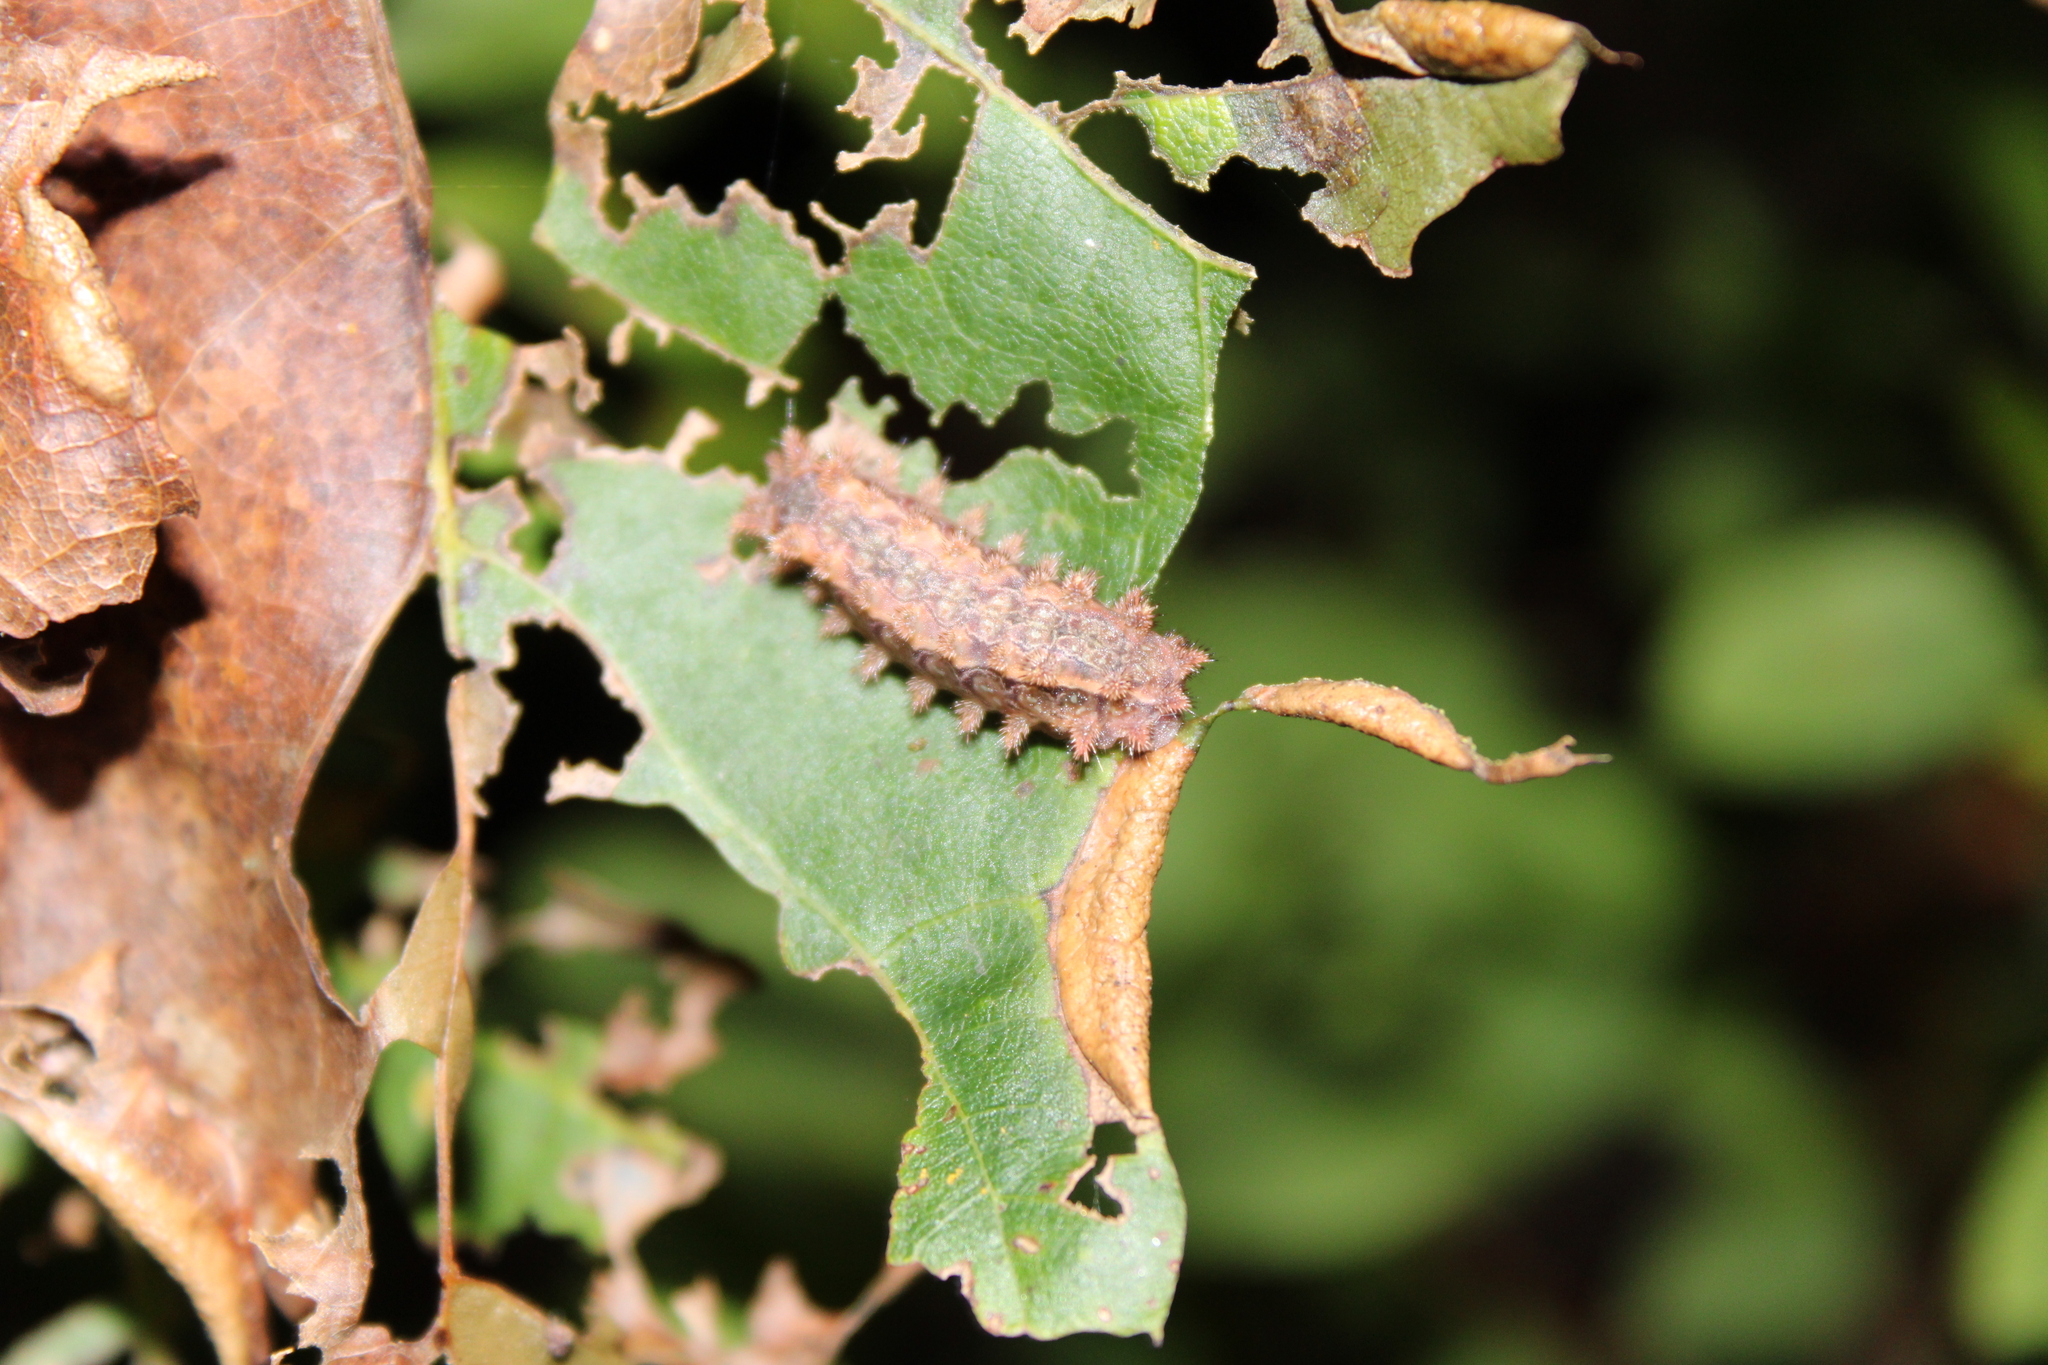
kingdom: Animalia
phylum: Arthropoda
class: Insecta
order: Lepidoptera
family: Limacodidae
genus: Euclea
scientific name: Euclea delphinii
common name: Spiny oak-slug moth
